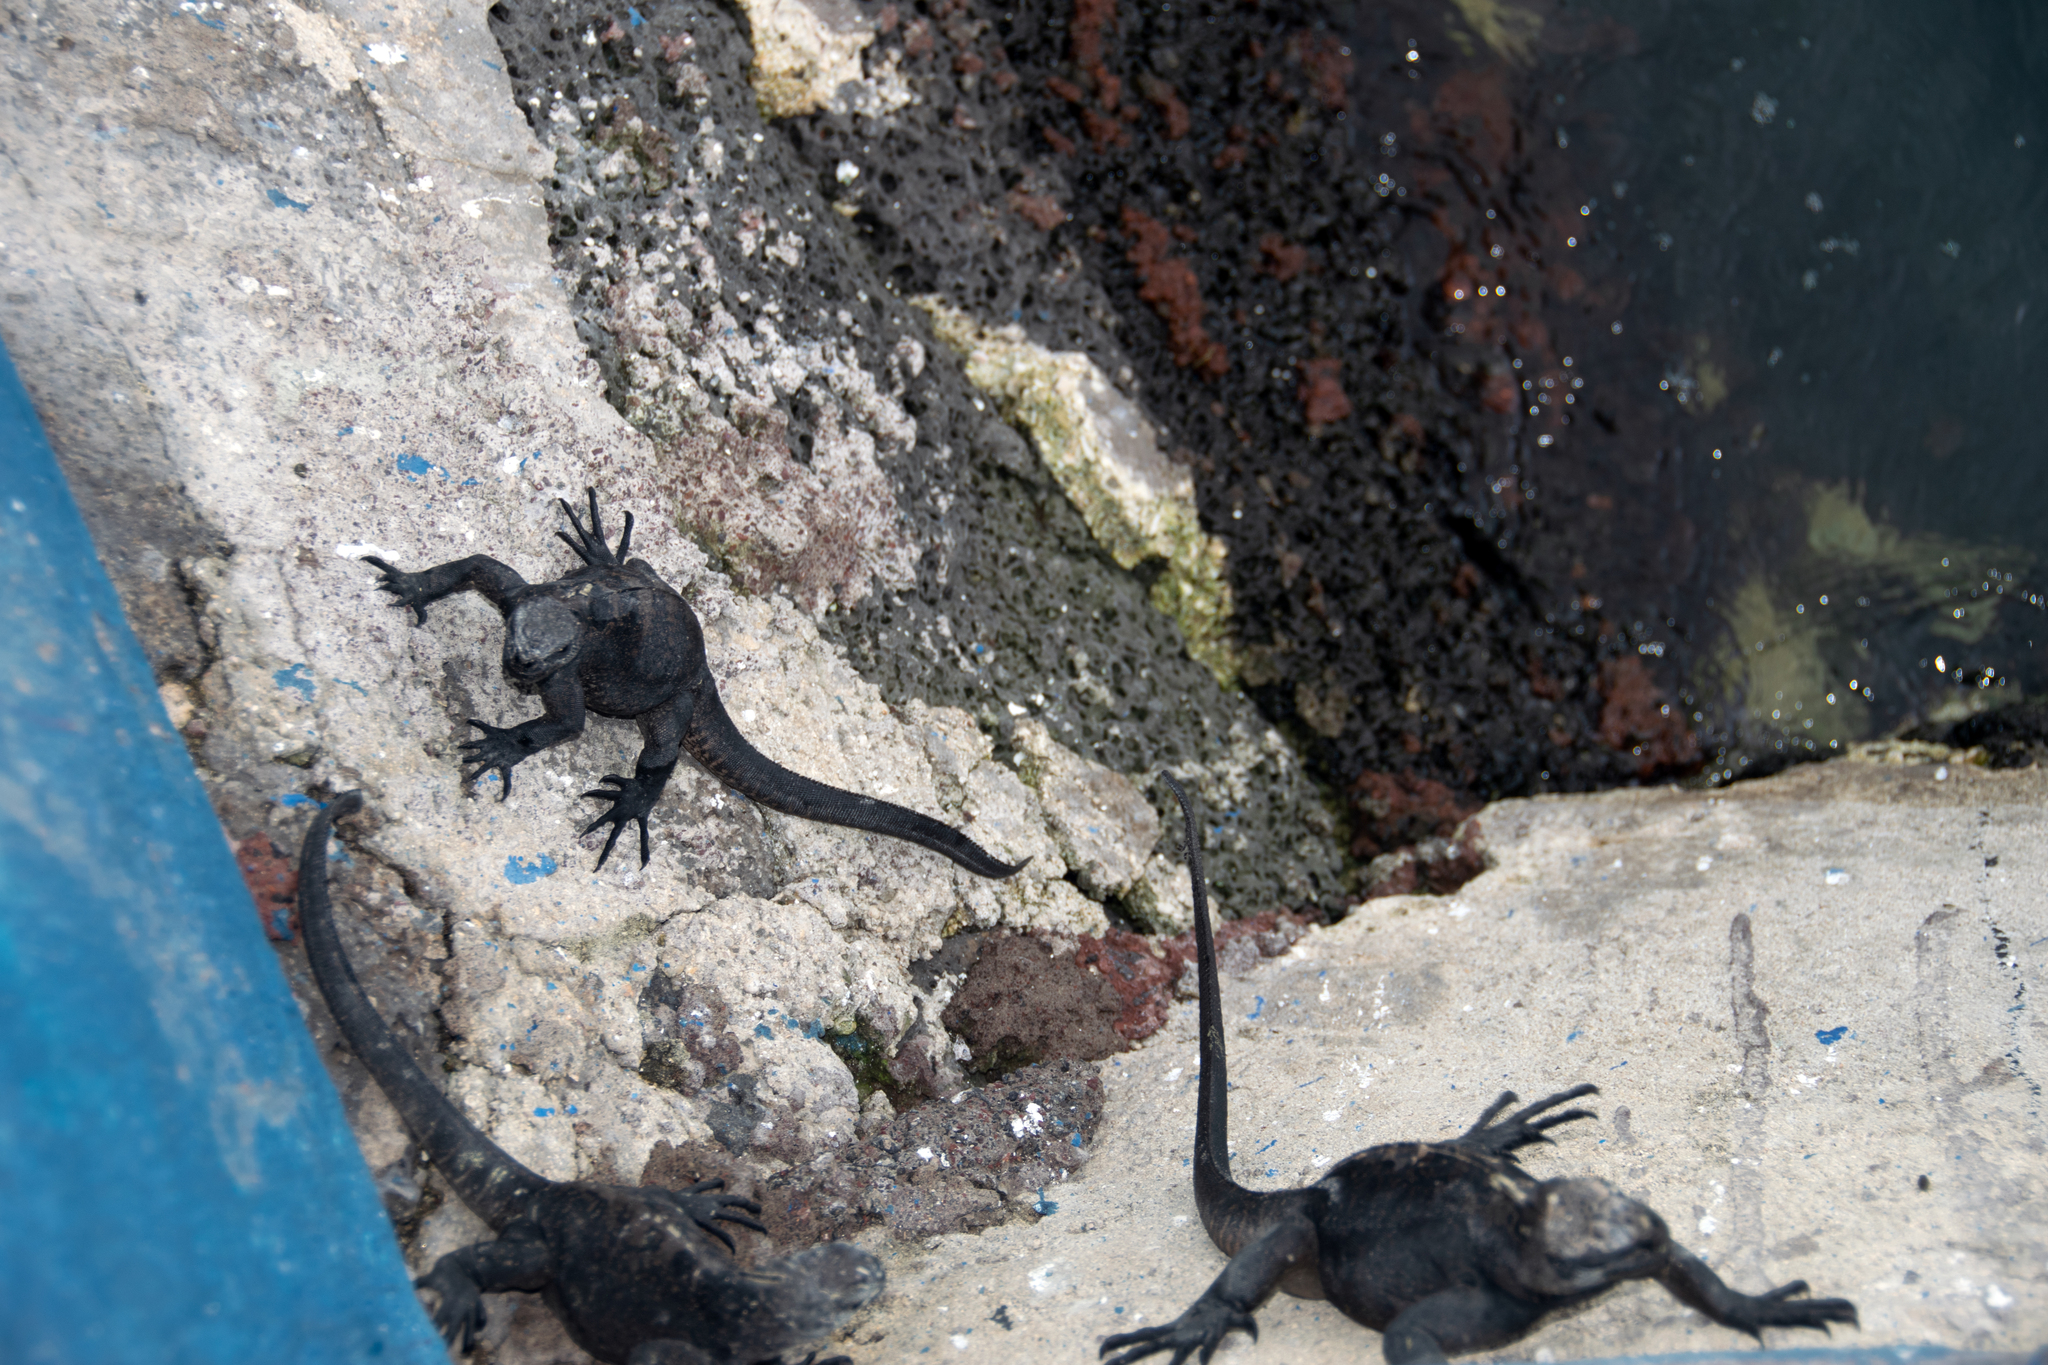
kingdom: Animalia
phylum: Chordata
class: Squamata
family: Iguanidae
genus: Amblyrhynchus
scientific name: Amblyrhynchus cristatus
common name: Marine iguana
